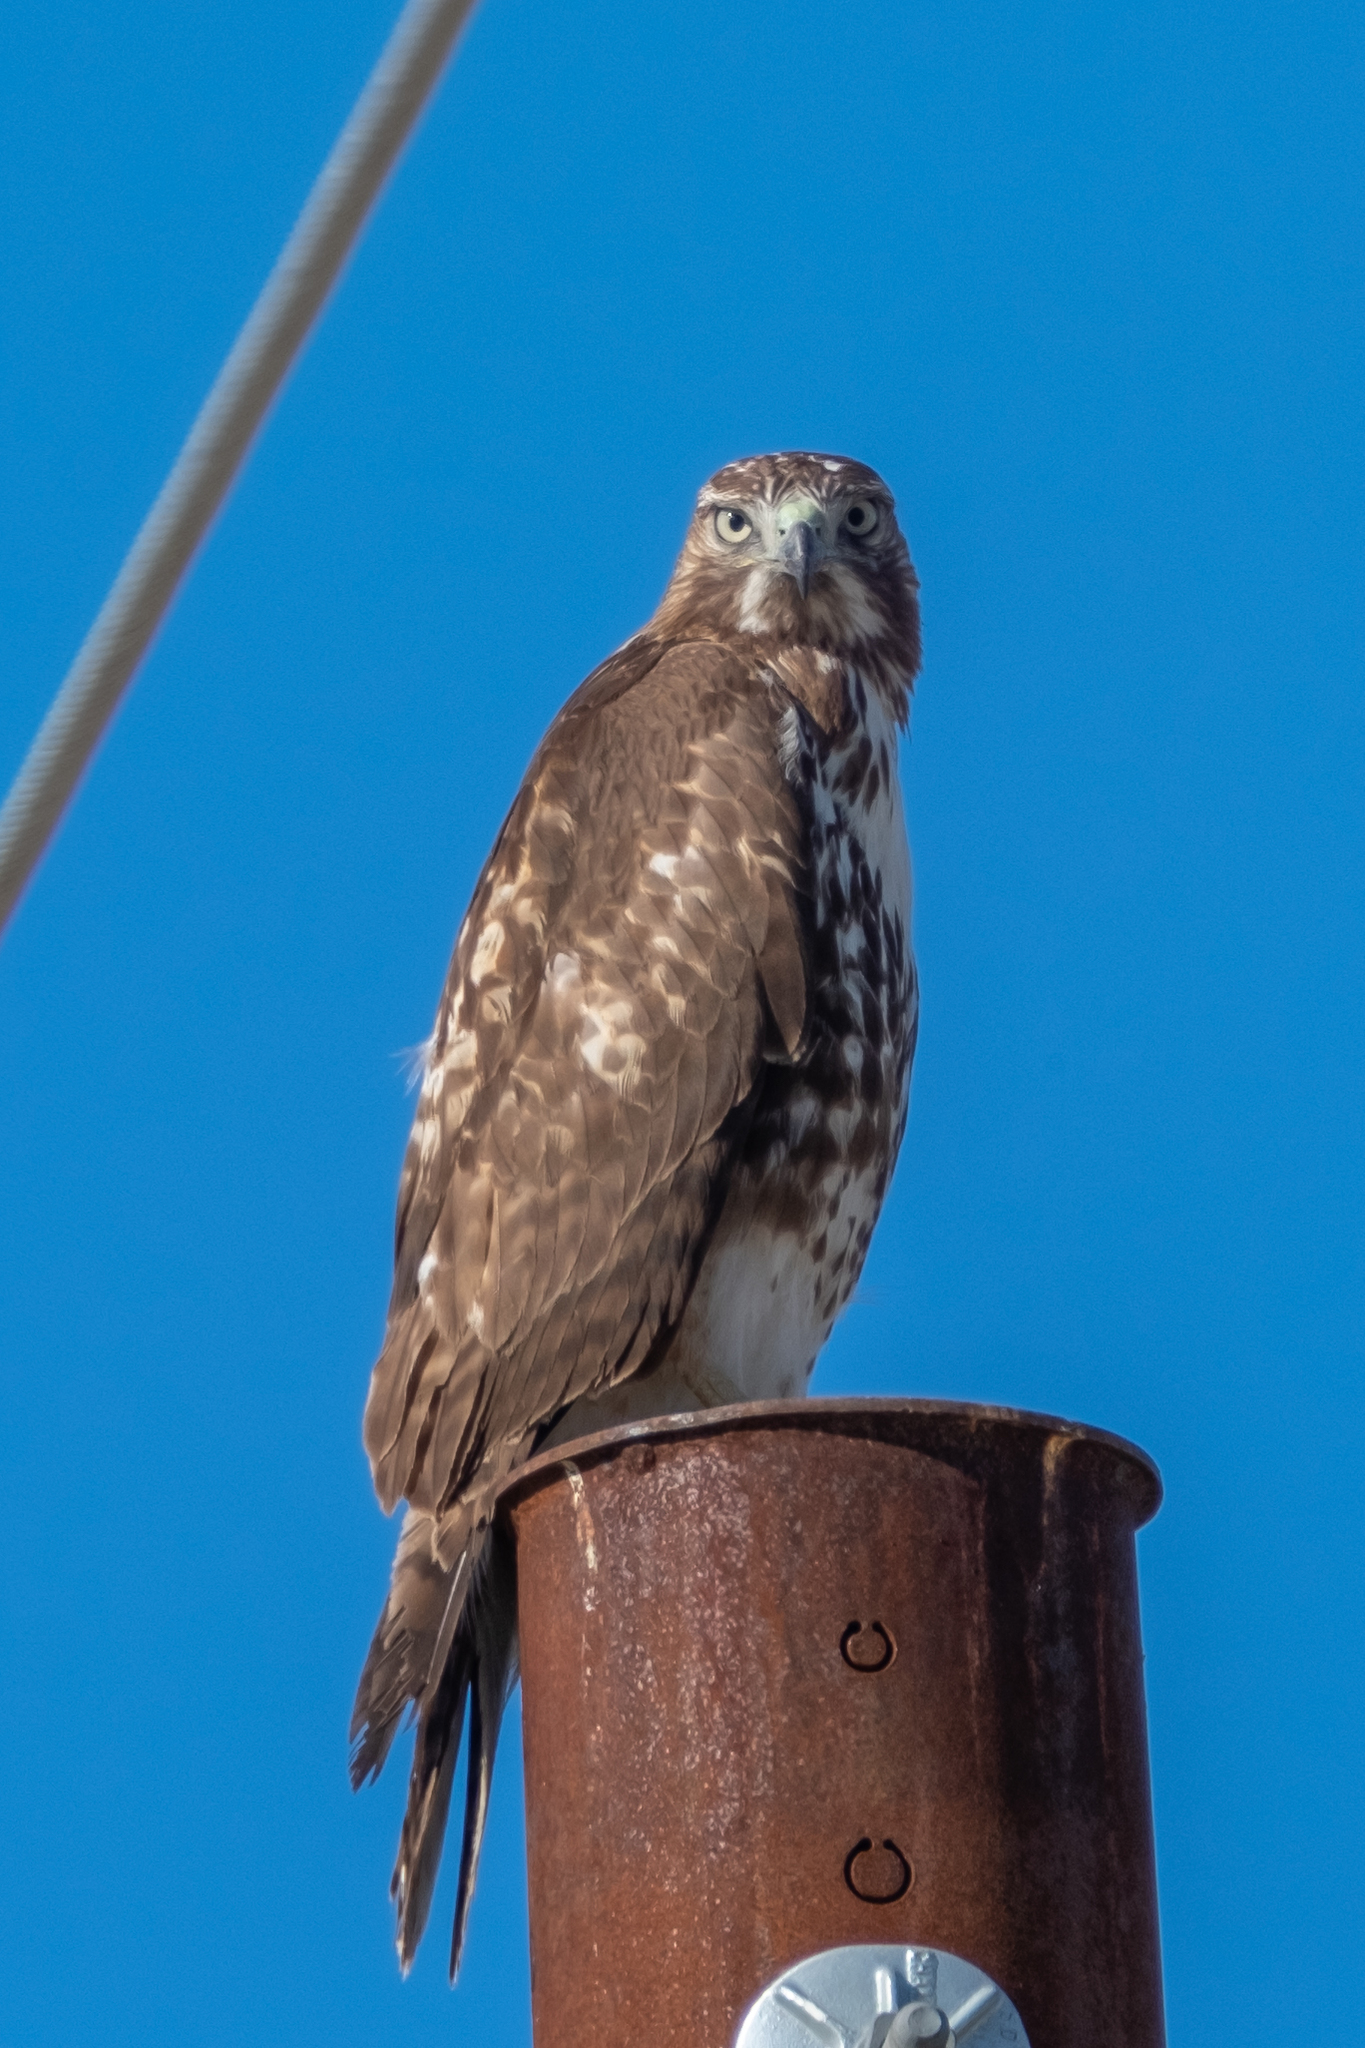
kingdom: Animalia
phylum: Chordata
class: Aves
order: Accipitriformes
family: Accipitridae
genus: Buteo
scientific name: Buteo jamaicensis
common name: Red-tailed hawk
